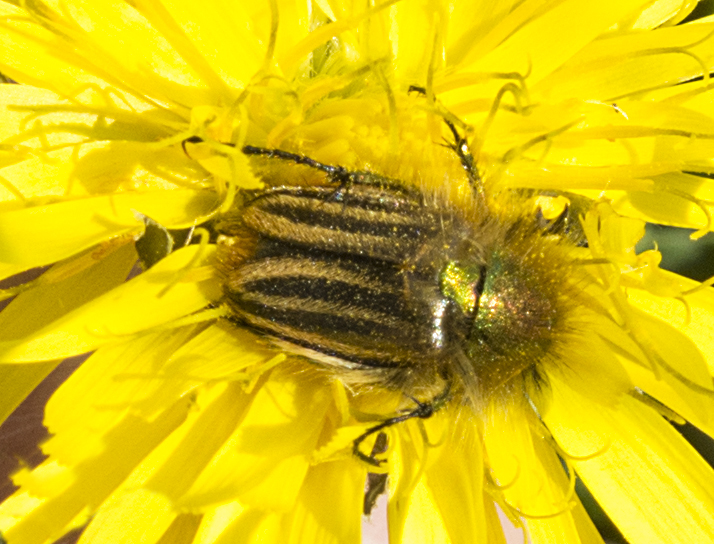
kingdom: Animalia
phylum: Arthropoda
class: Insecta
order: Coleoptera
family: Glaphyridae
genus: Eulasia
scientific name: Eulasia pareyssei
